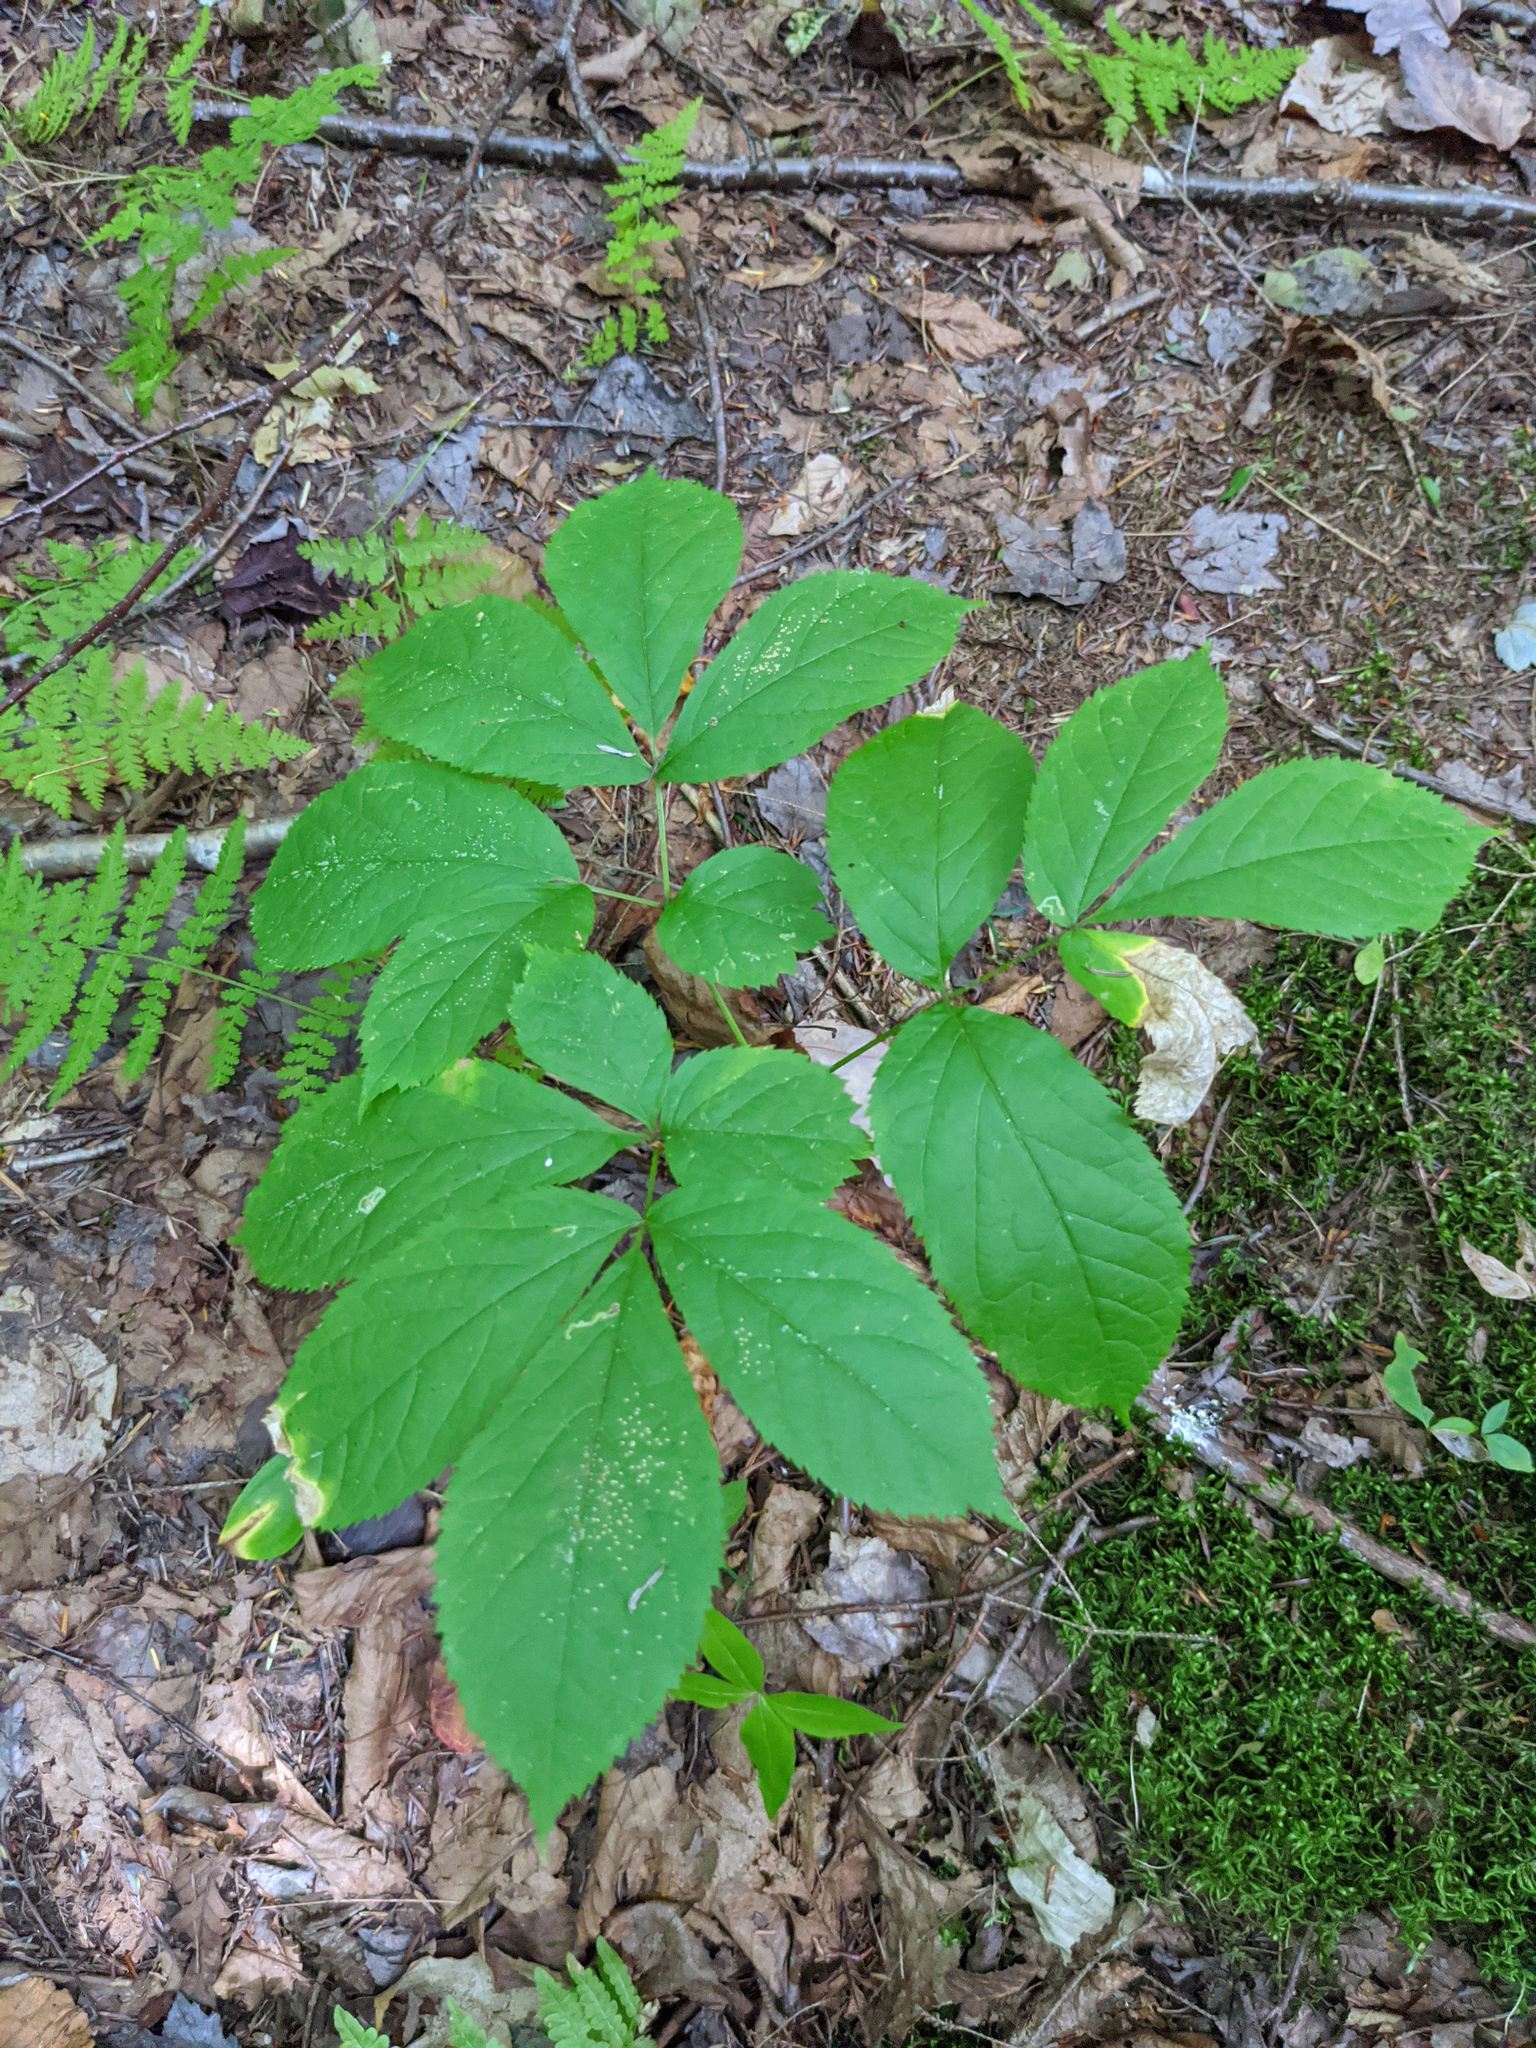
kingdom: Plantae
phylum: Tracheophyta
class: Magnoliopsida
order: Apiales
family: Araliaceae
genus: Aralia
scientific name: Aralia nudicaulis
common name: Wild sarsaparilla
